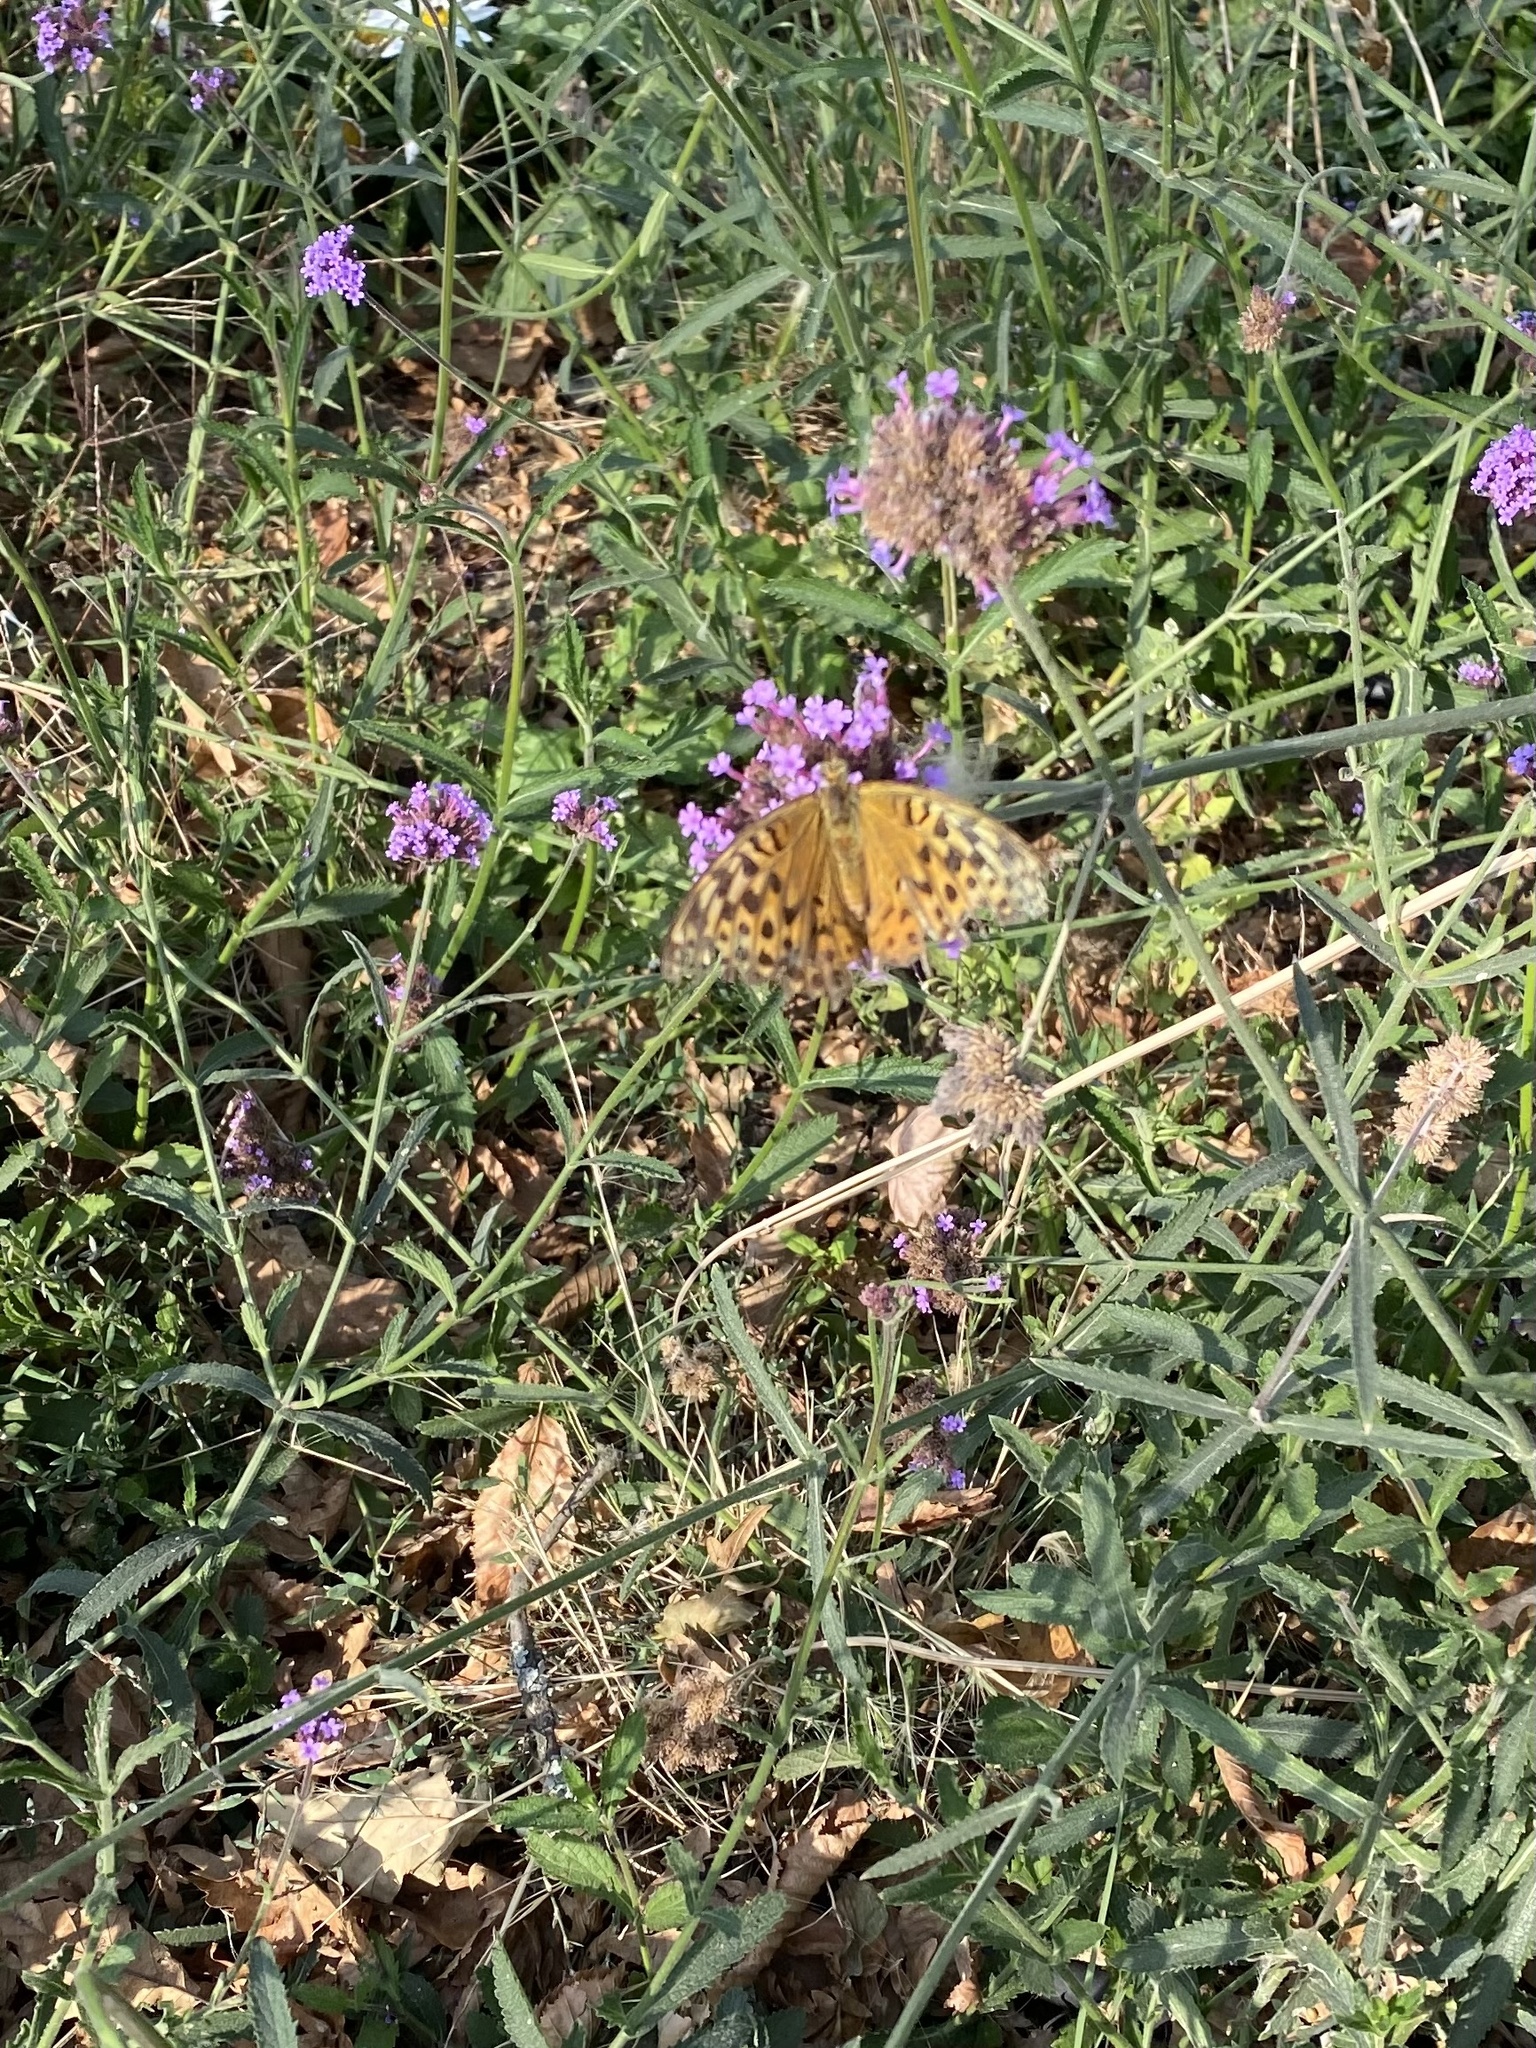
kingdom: Animalia
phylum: Arthropoda
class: Insecta
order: Lepidoptera
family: Nymphalidae
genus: Argynnis
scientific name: Argynnis paphia
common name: Silver-washed fritillary
